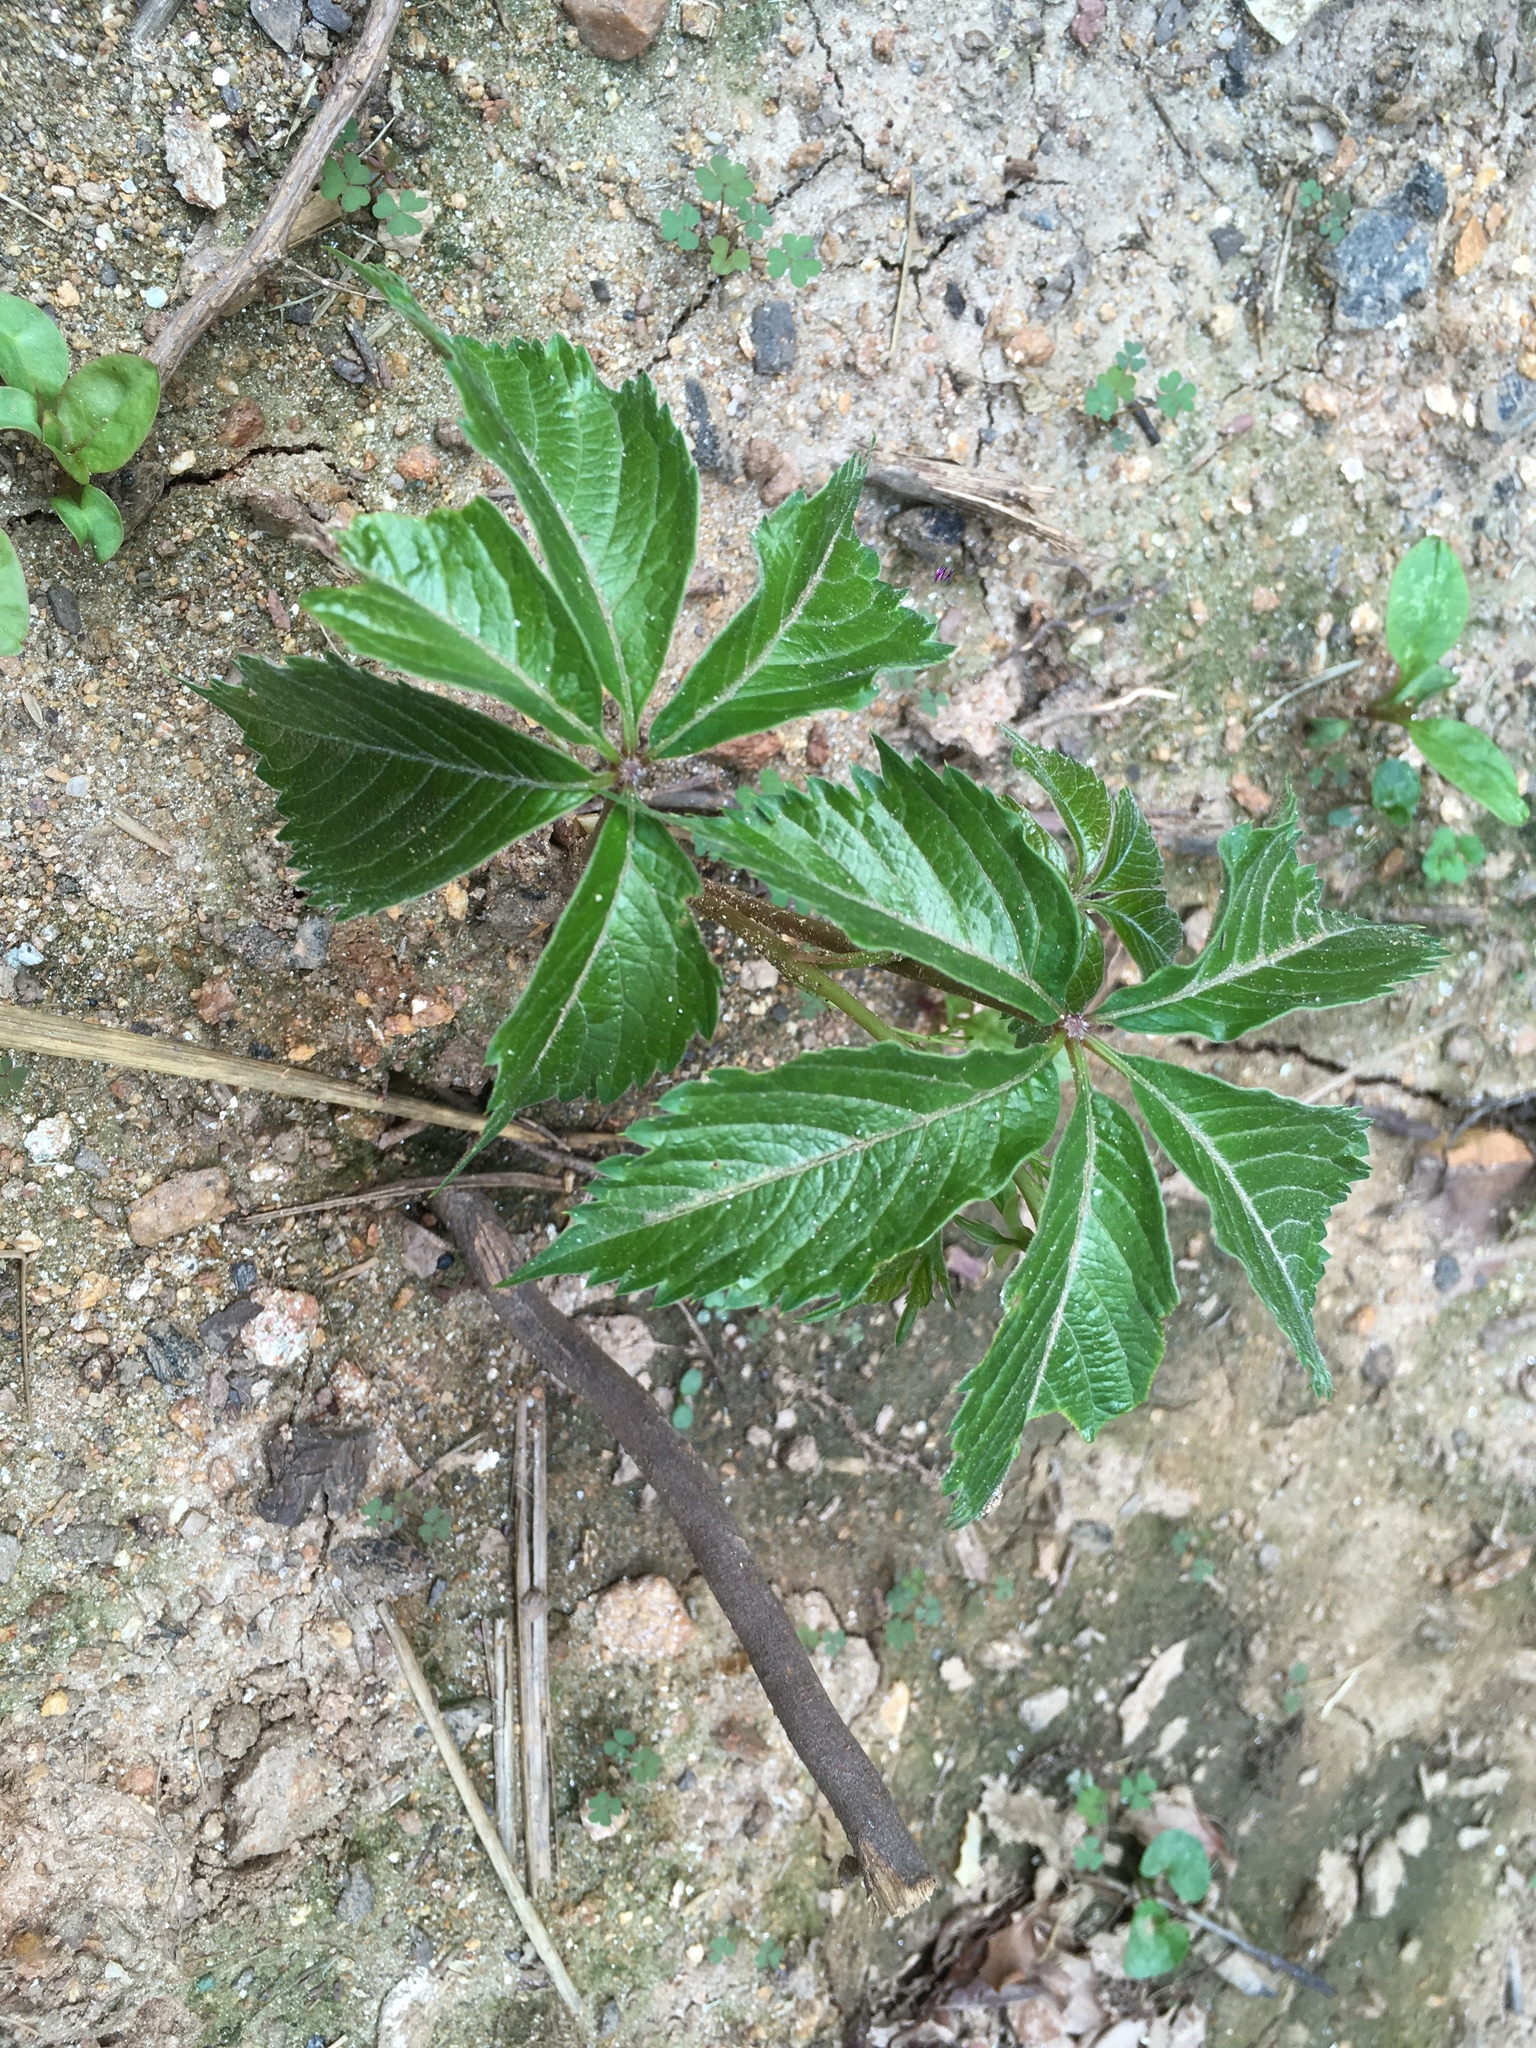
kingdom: Plantae
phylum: Tracheophyta
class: Magnoliopsida
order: Vitales
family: Vitaceae
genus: Parthenocissus
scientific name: Parthenocissus quinquefolia
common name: Virginia-creeper
